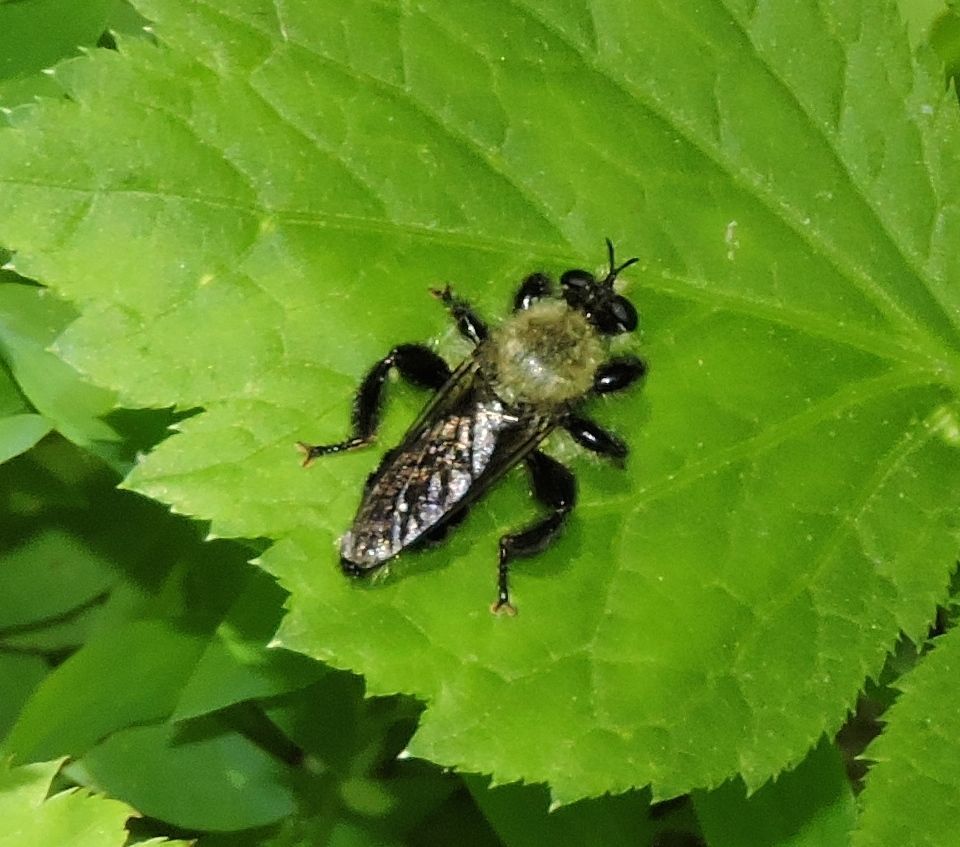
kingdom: Animalia
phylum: Arthropoda
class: Insecta
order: Diptera
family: Asilidae
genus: Laphria
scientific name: Laphria flavicollis
